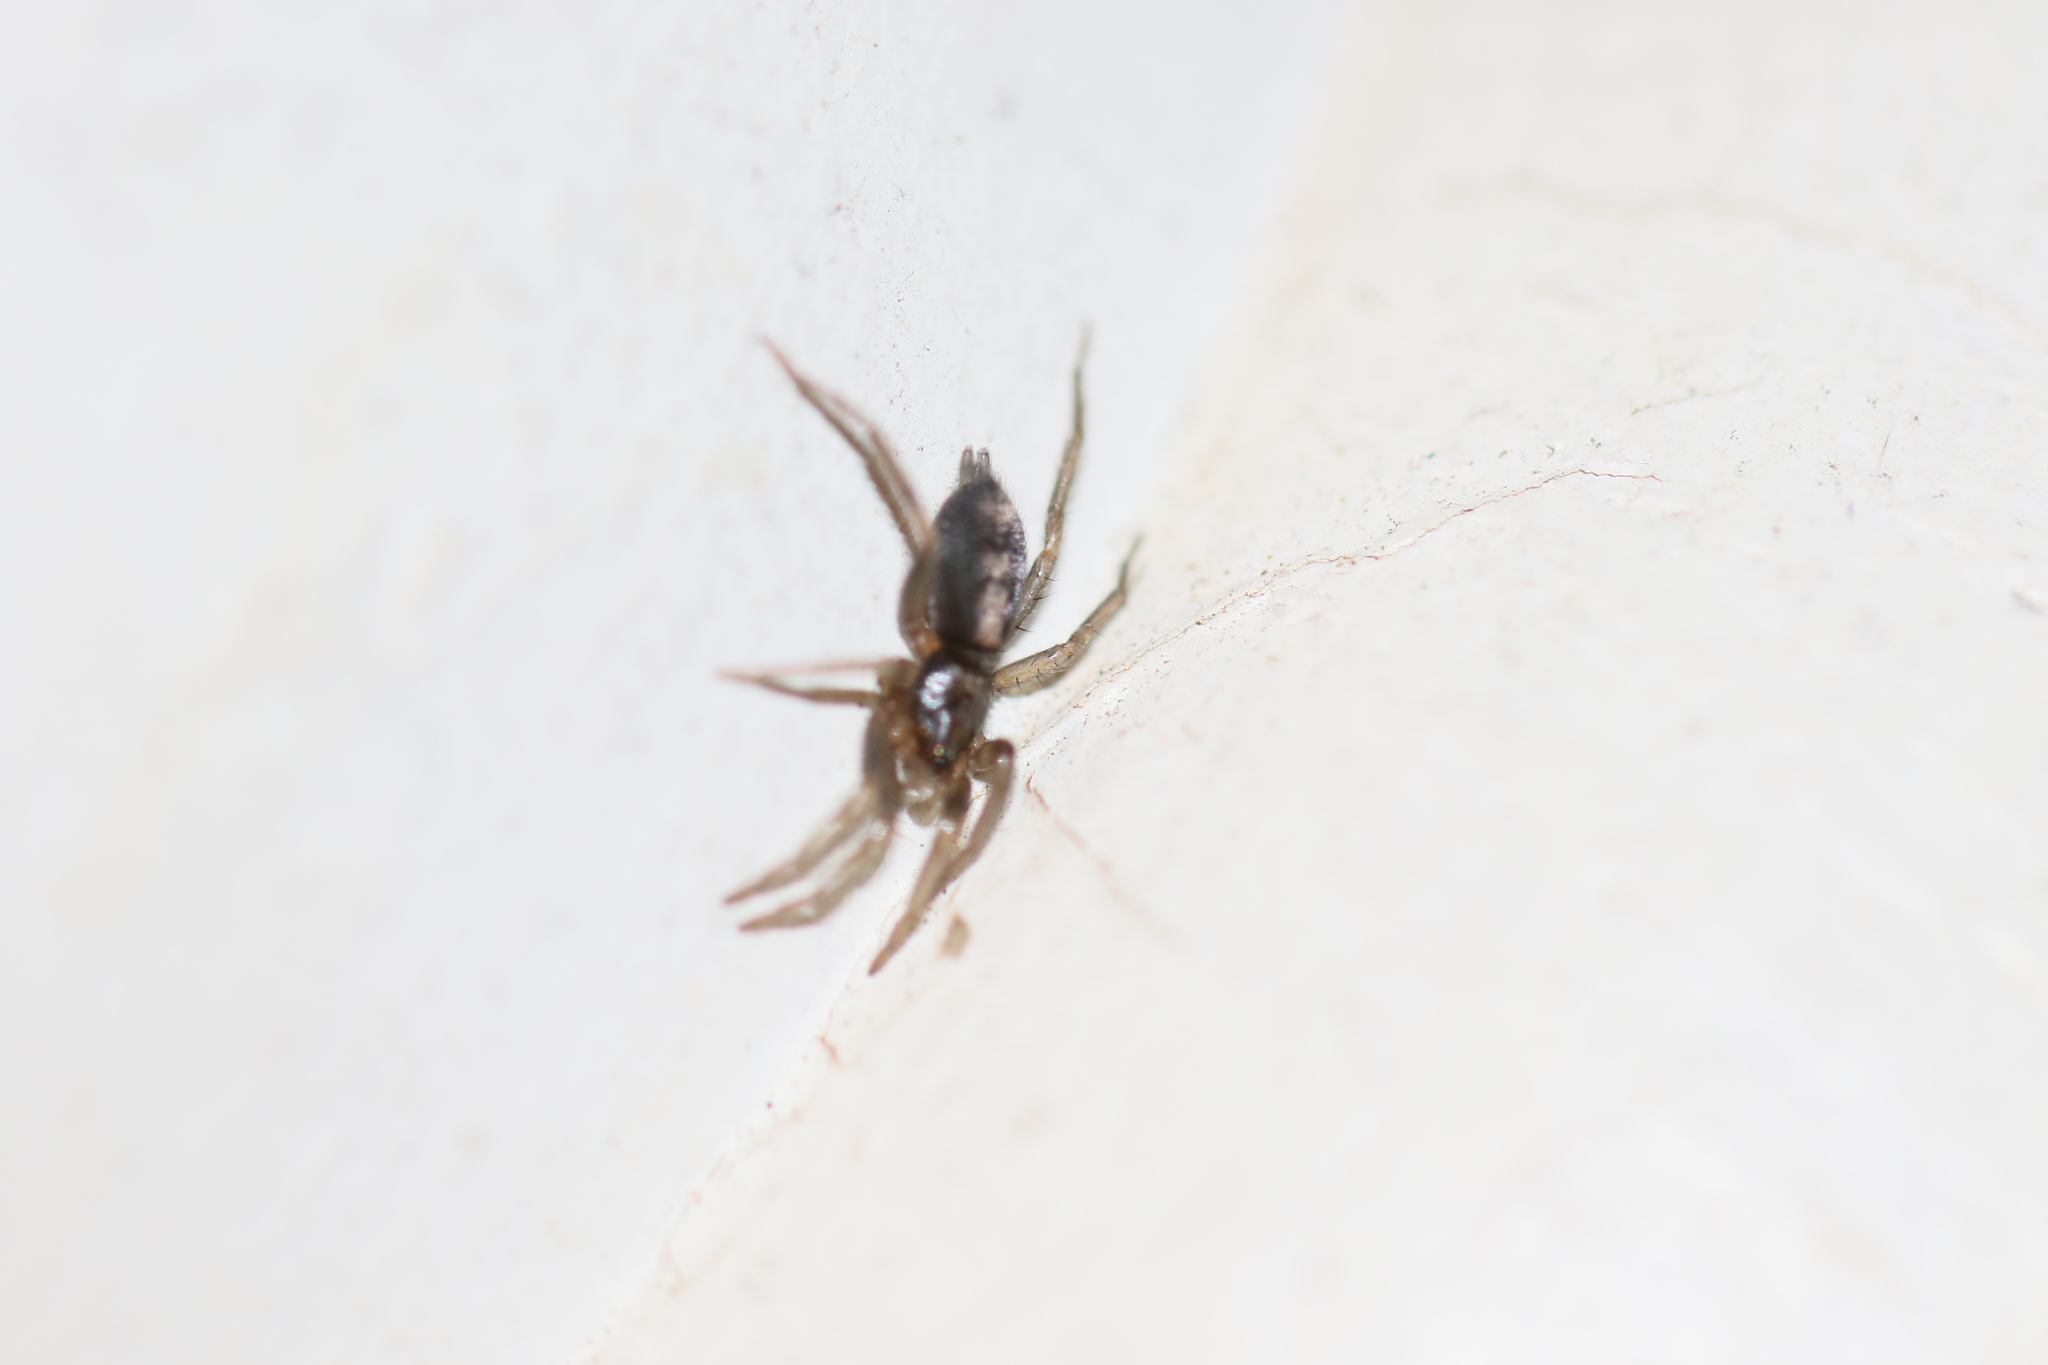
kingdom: Animalia
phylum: Arthropoda
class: Arachnida
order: Araneae
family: Gnaphosidae
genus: Herpyllus
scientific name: Herpyllus ecclesiasticus
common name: Eastern parson spider
